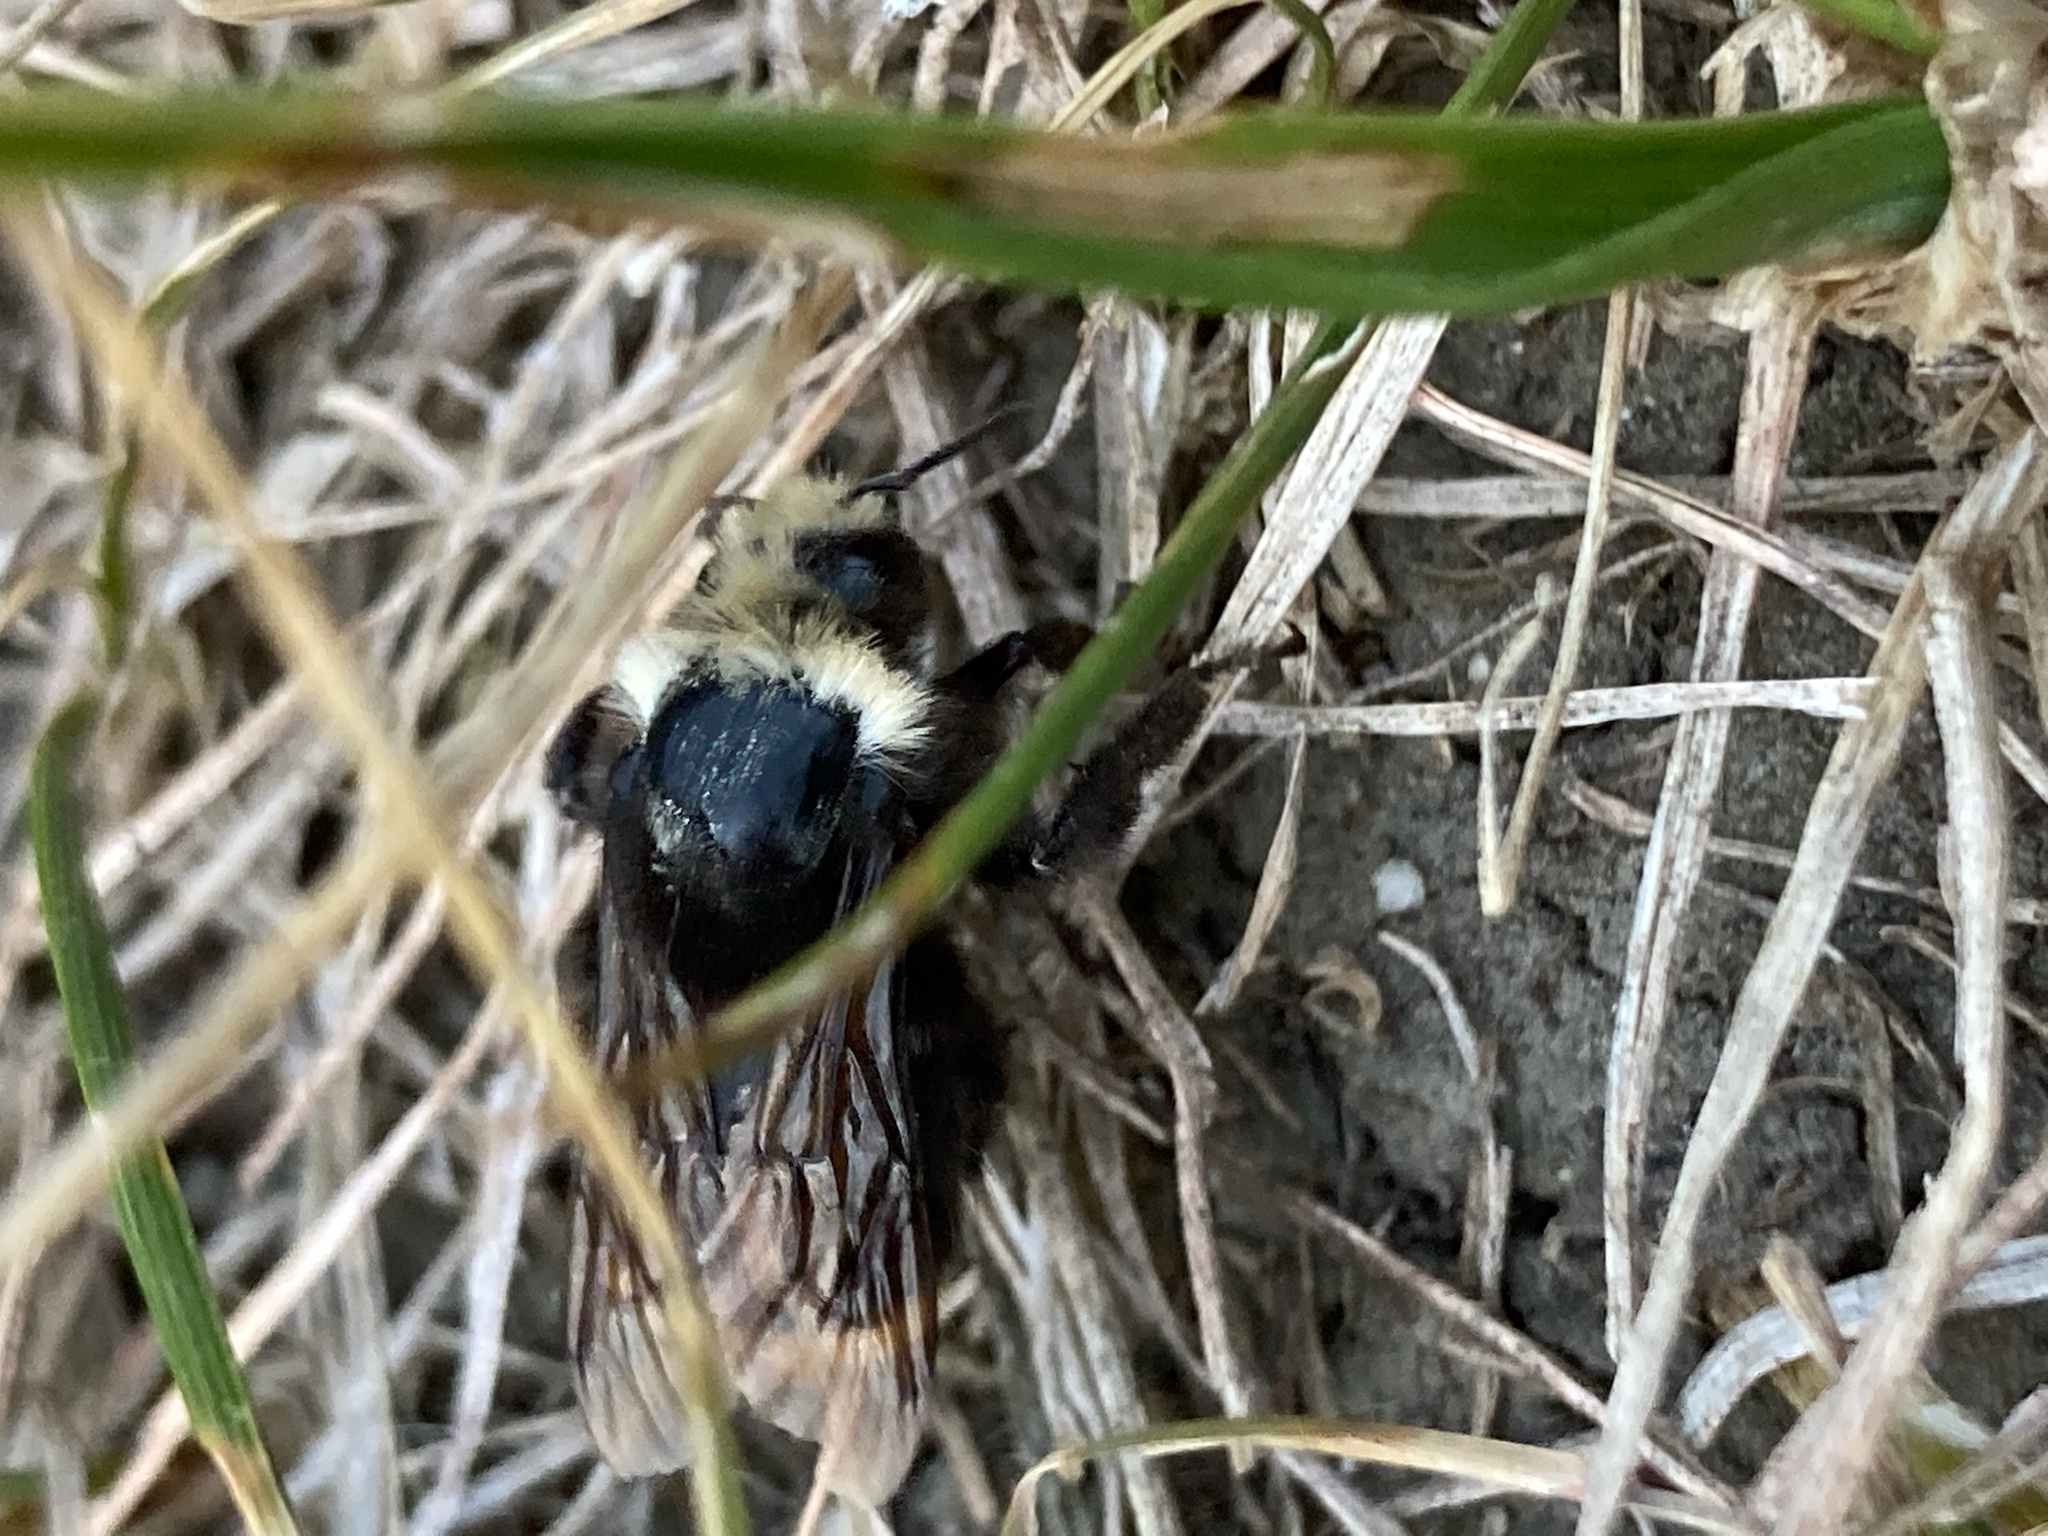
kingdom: Animalia
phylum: Arthropoda
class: Insecta
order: Hymenoptera
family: Apidae
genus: Bombus
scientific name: Bombus vosnesenskii
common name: Vosnesensky bumble bee
